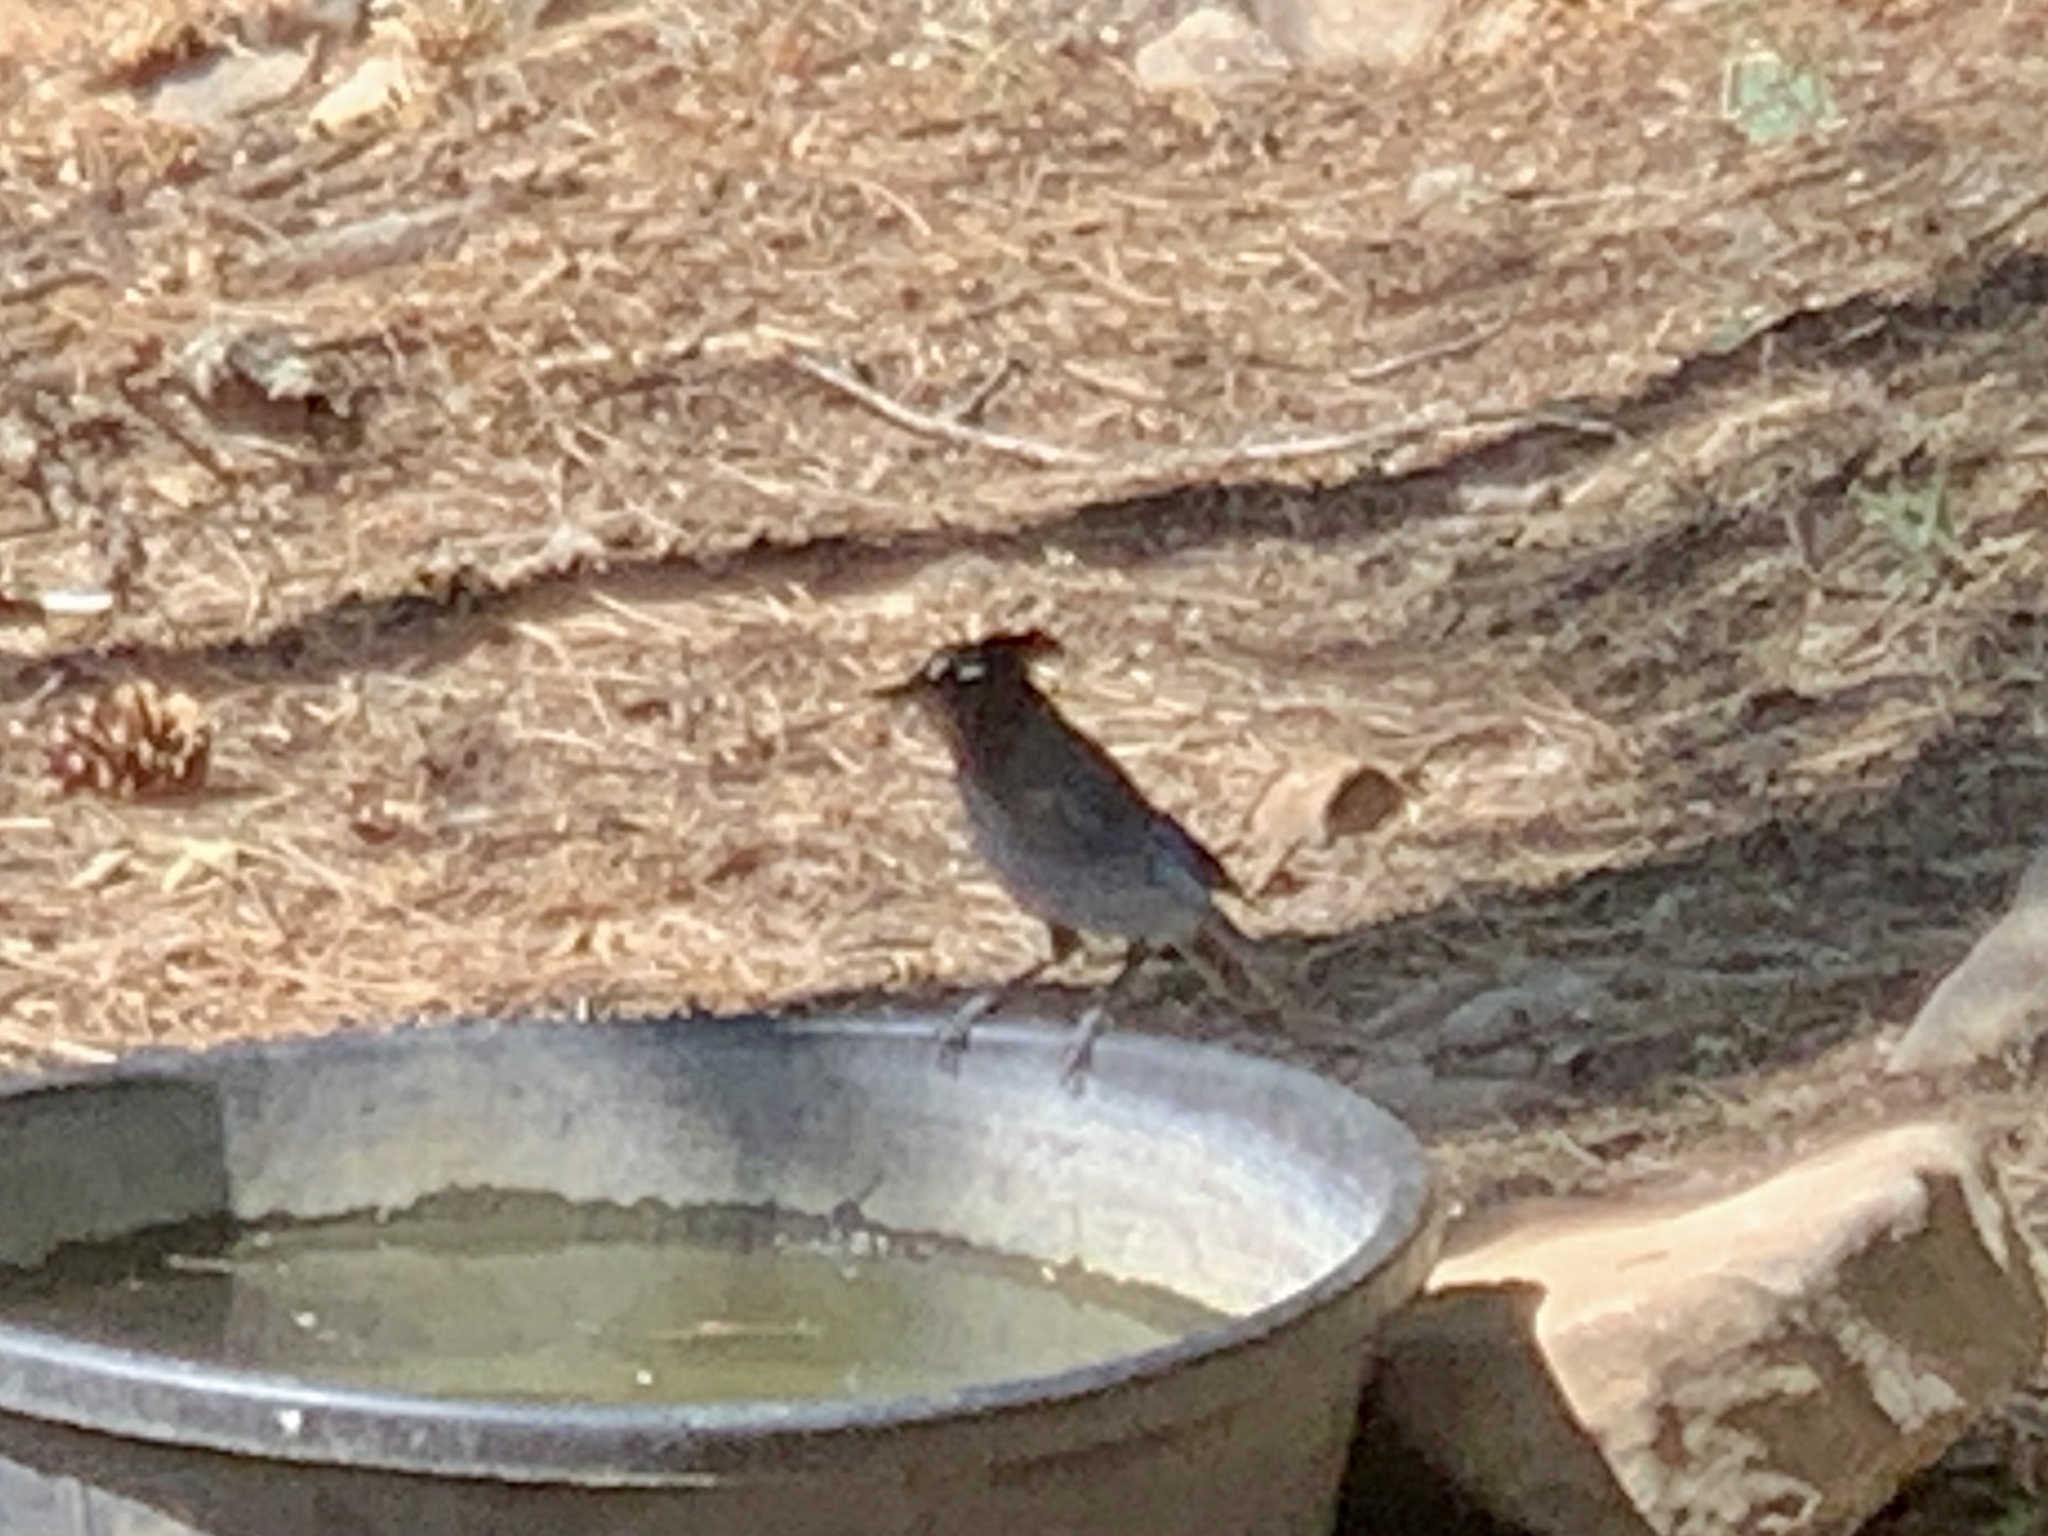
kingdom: Animalia
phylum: Chordata
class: Aves
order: Passeriformes
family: Corvidae
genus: Cyanocitta
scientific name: Cyanocitta stelleri
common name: Steller's jay
